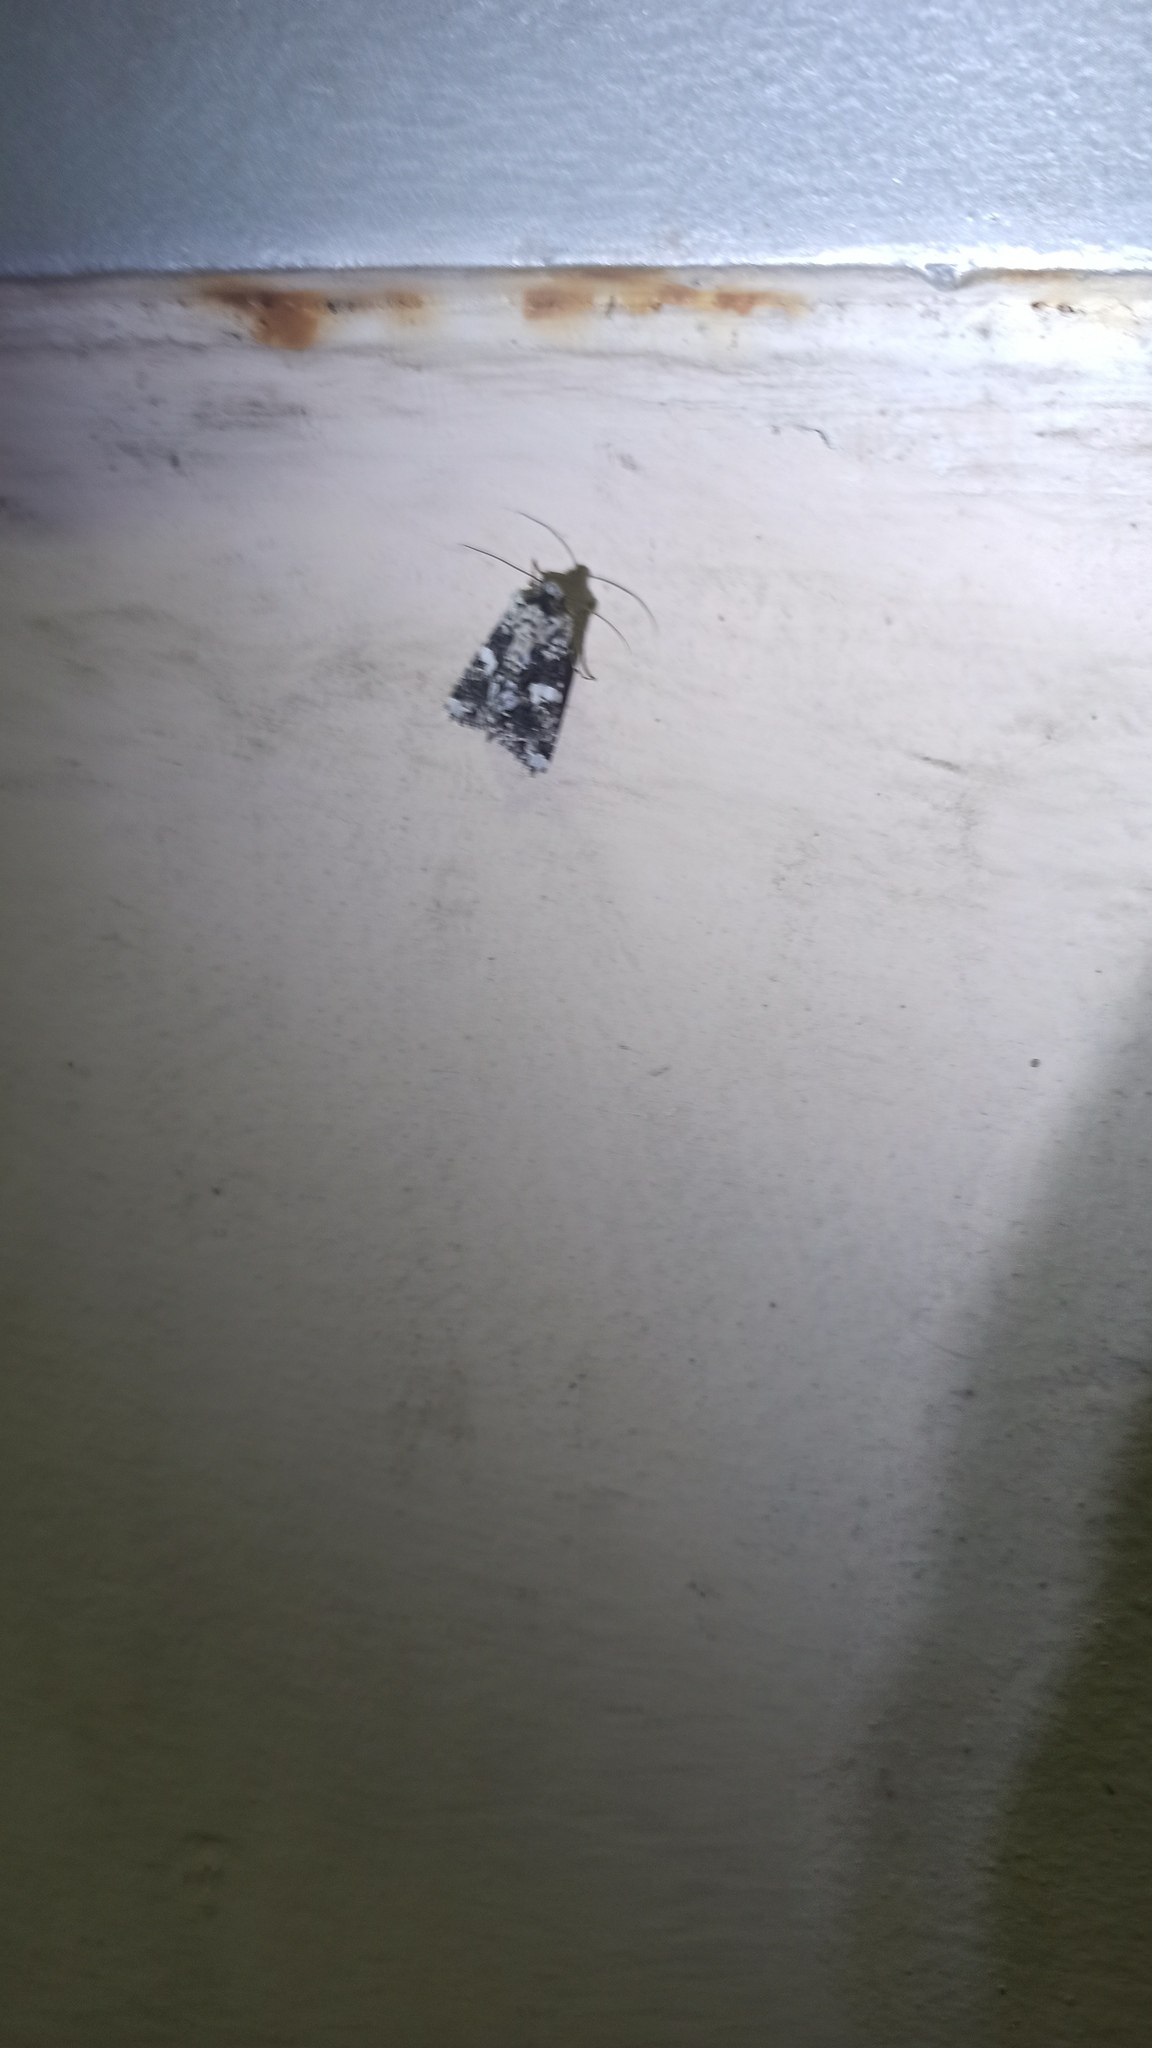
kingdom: Animalia
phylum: Arthropoda
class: Insecta
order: Lepidoptera
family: Noctuidae
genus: Hadena
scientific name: Hadena confusa
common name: Marbled coronet
